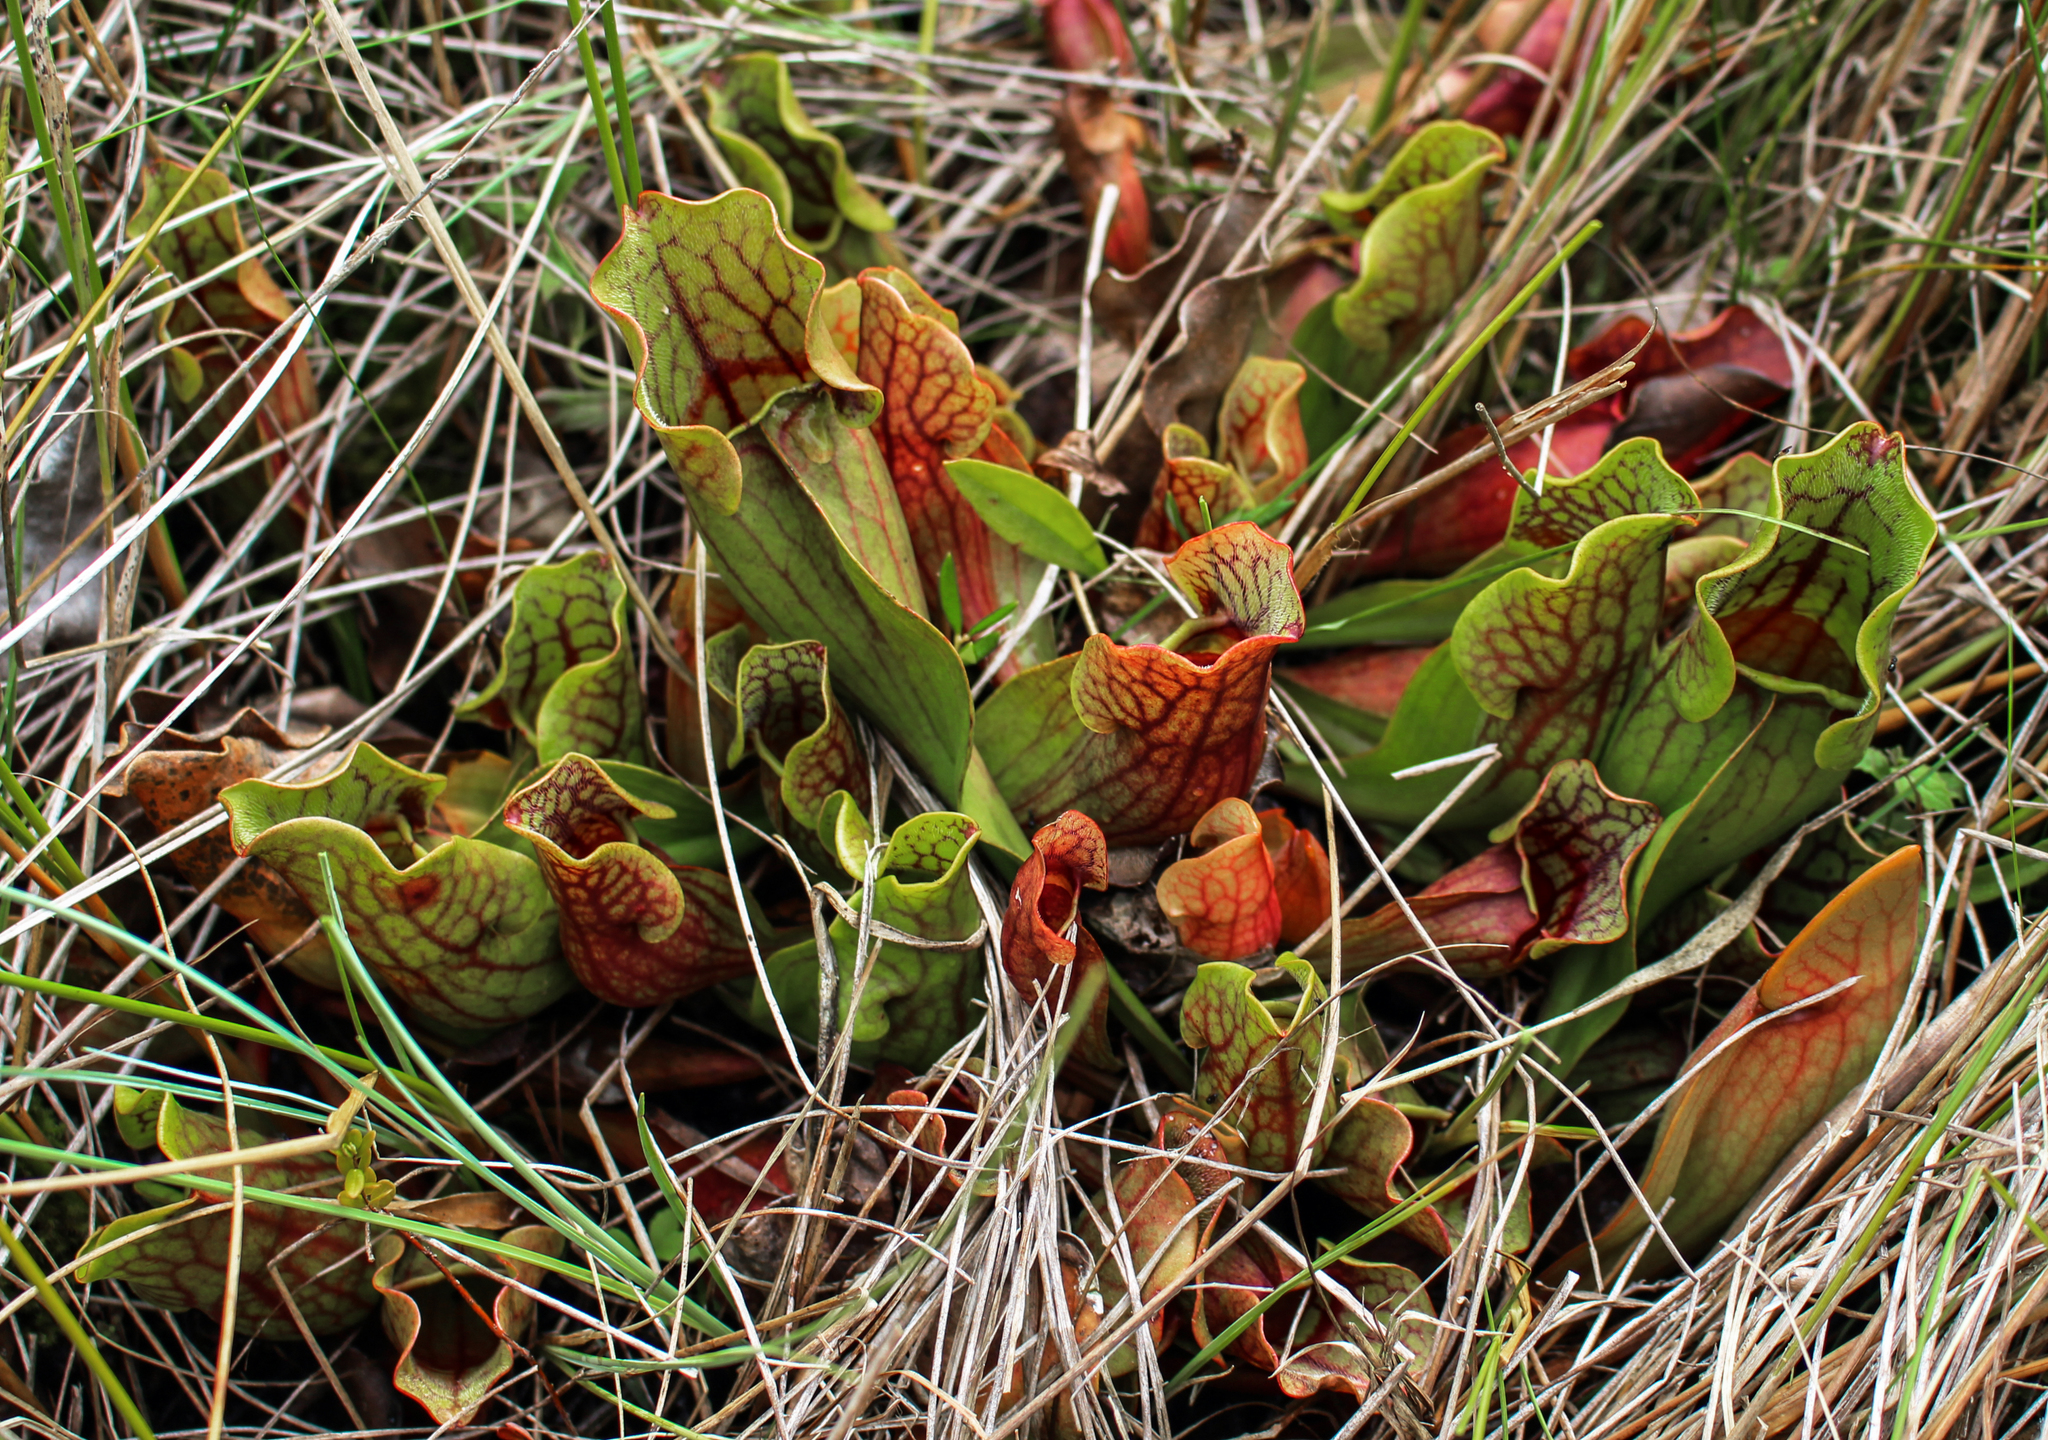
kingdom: Plantae
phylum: Tracheophyta
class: Magnoliopsida
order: Ericales
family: Sarraceniaceae
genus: Sarracenia
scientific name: Sarracenia purpurea
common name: Pitcherplant
